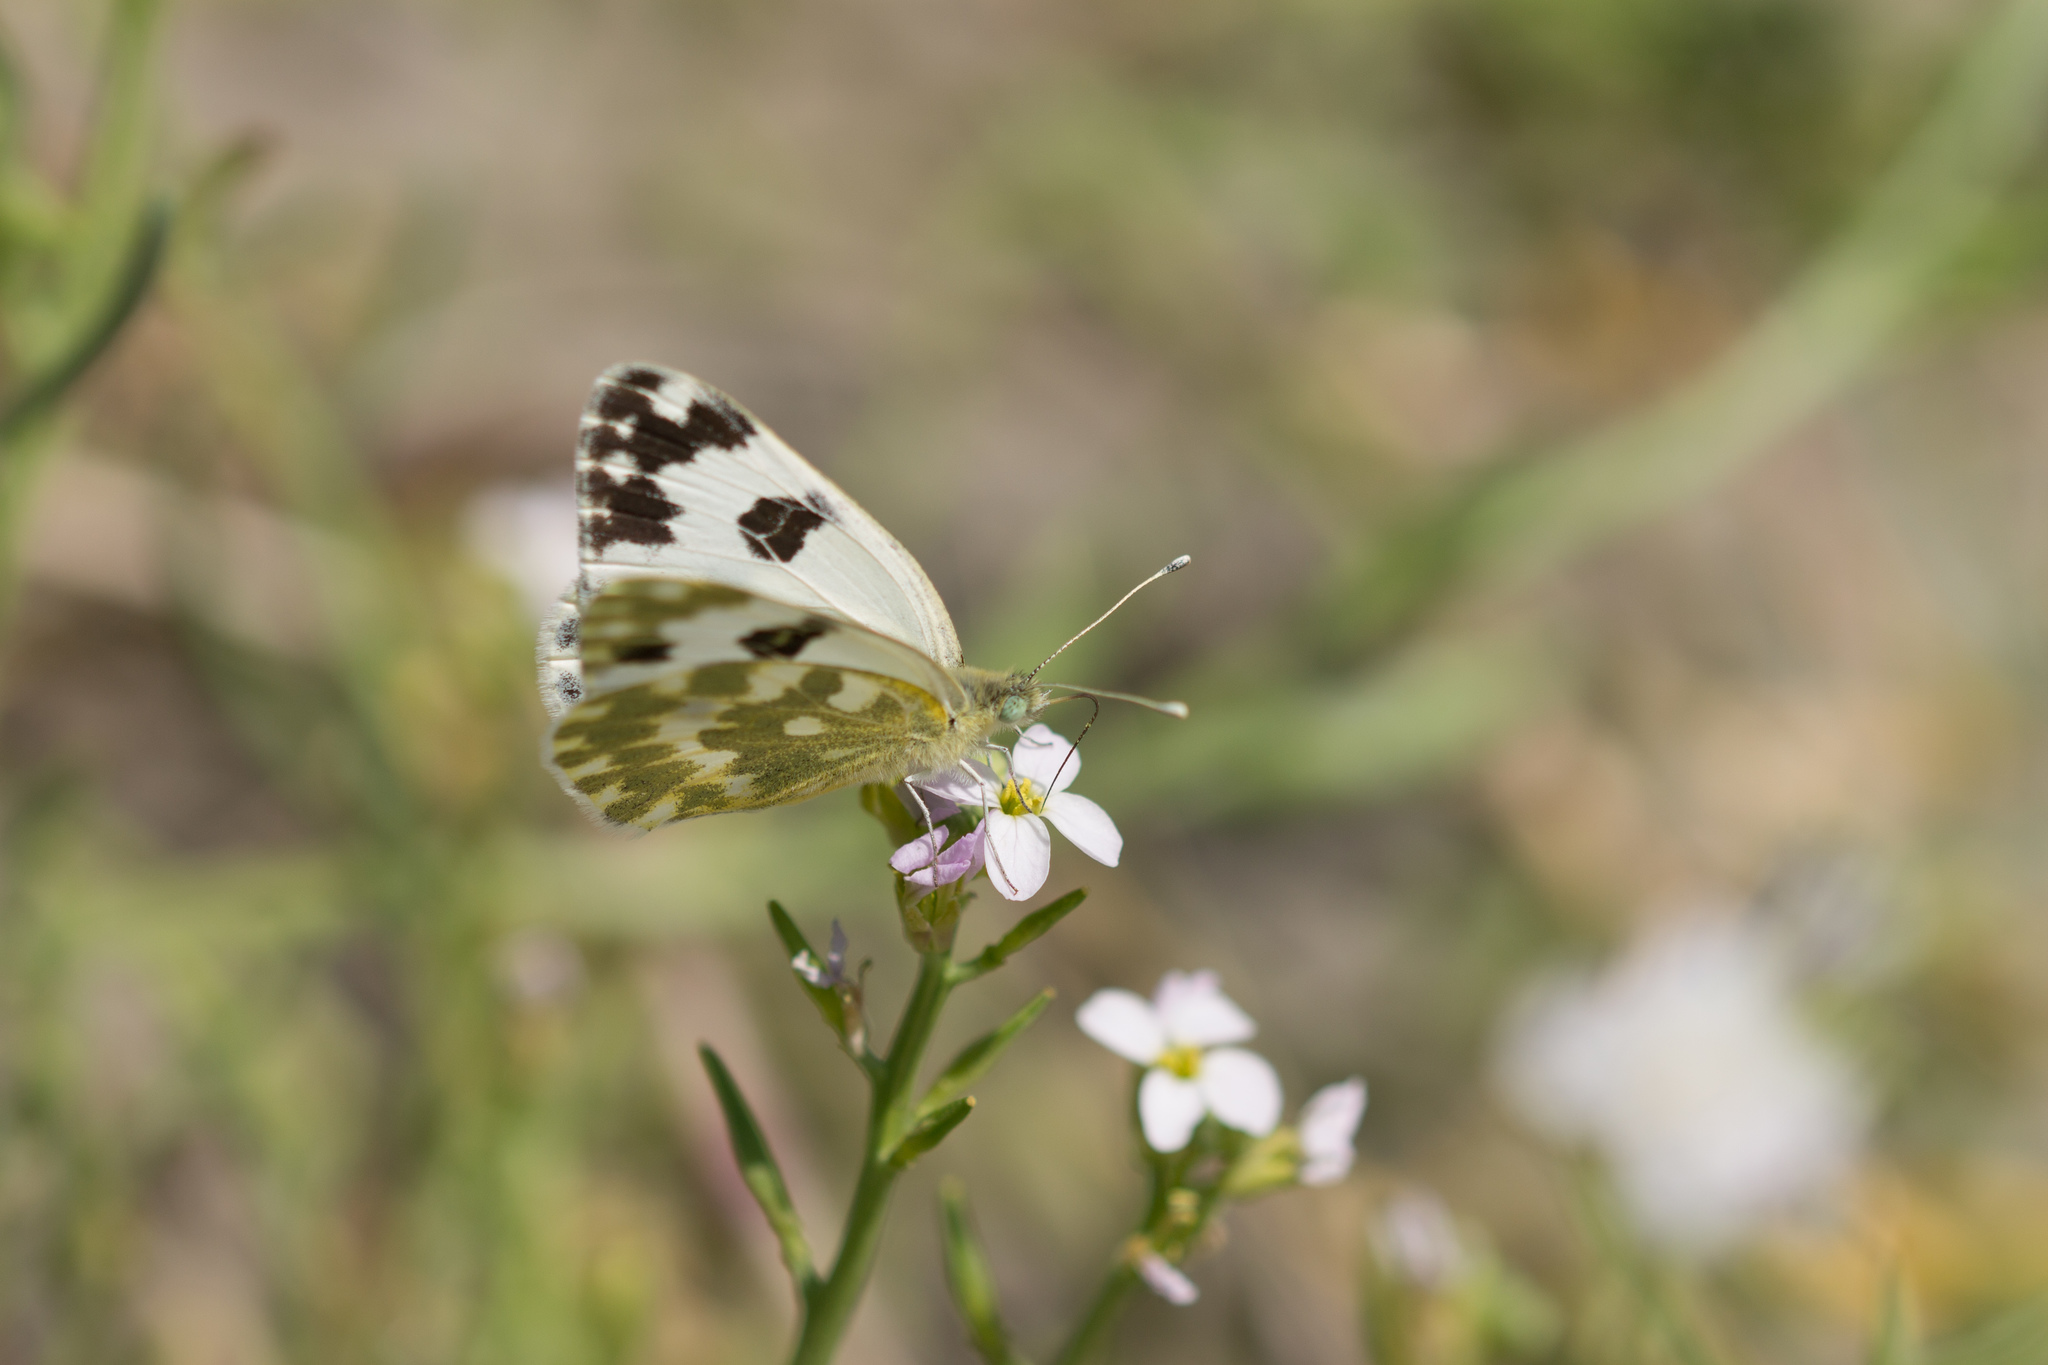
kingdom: Animalia
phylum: Arthropoda
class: Insecta
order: Lepidoptera
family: Pieridae
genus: Pontia
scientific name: Pontia daplidice
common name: Bath white
